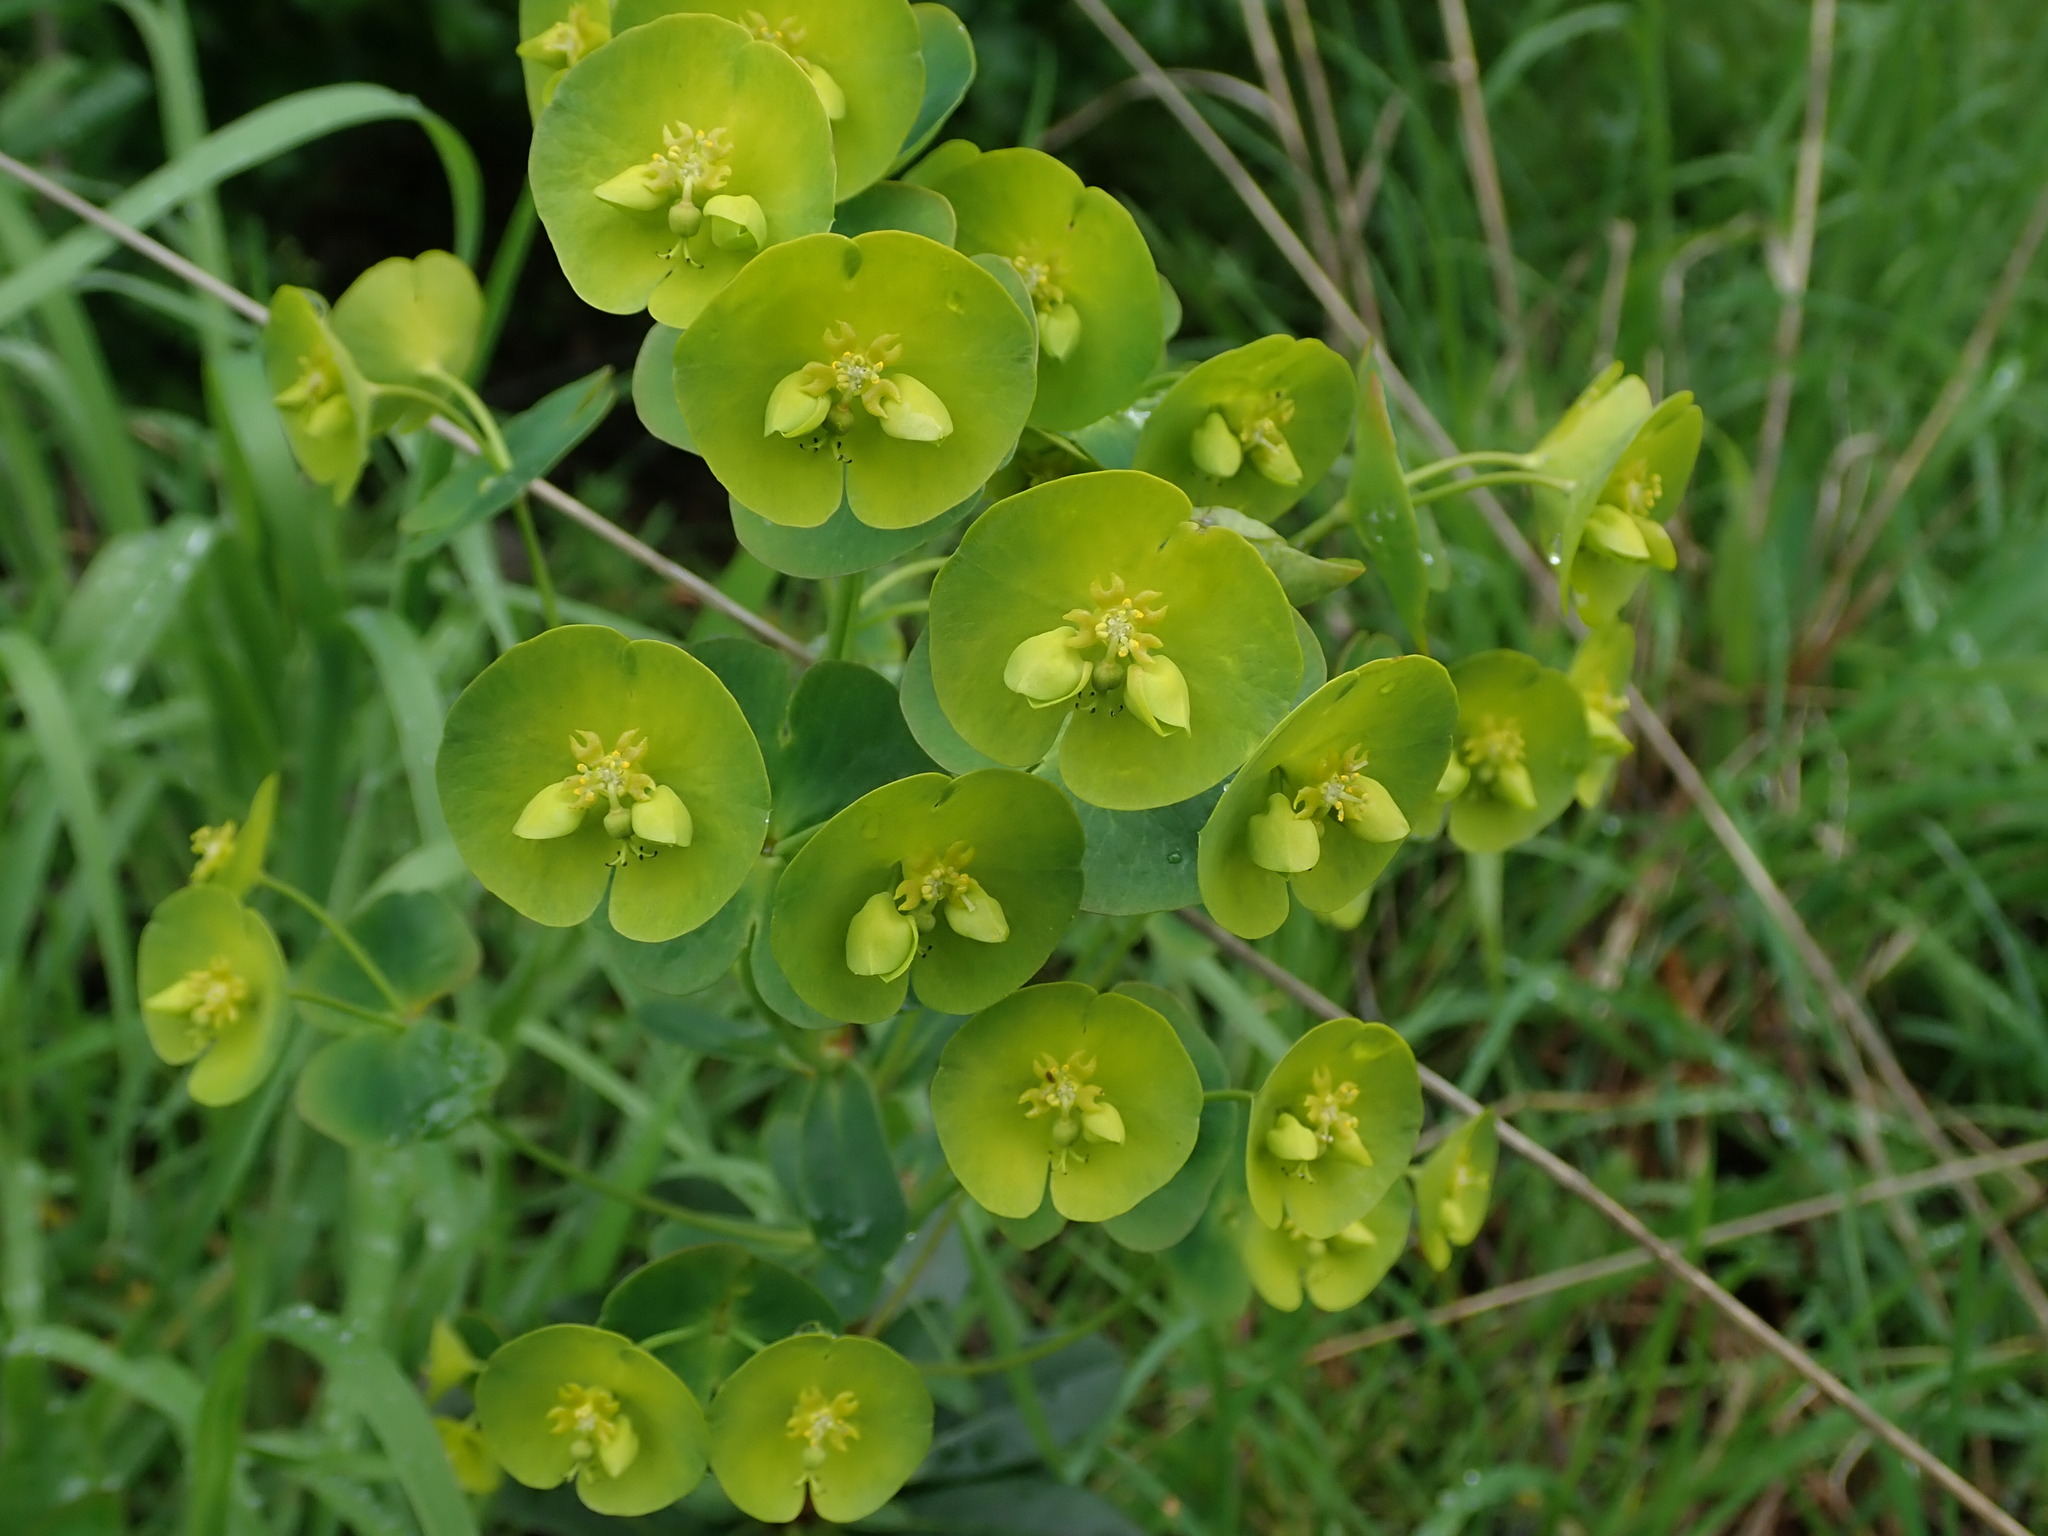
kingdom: Plantae
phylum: Tracheophyta
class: Magnoliopsida
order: Malpighiales
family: Euphorbiaceae
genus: Euphorbia
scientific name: Euphorbia amygdaloides
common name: Wood spurge
